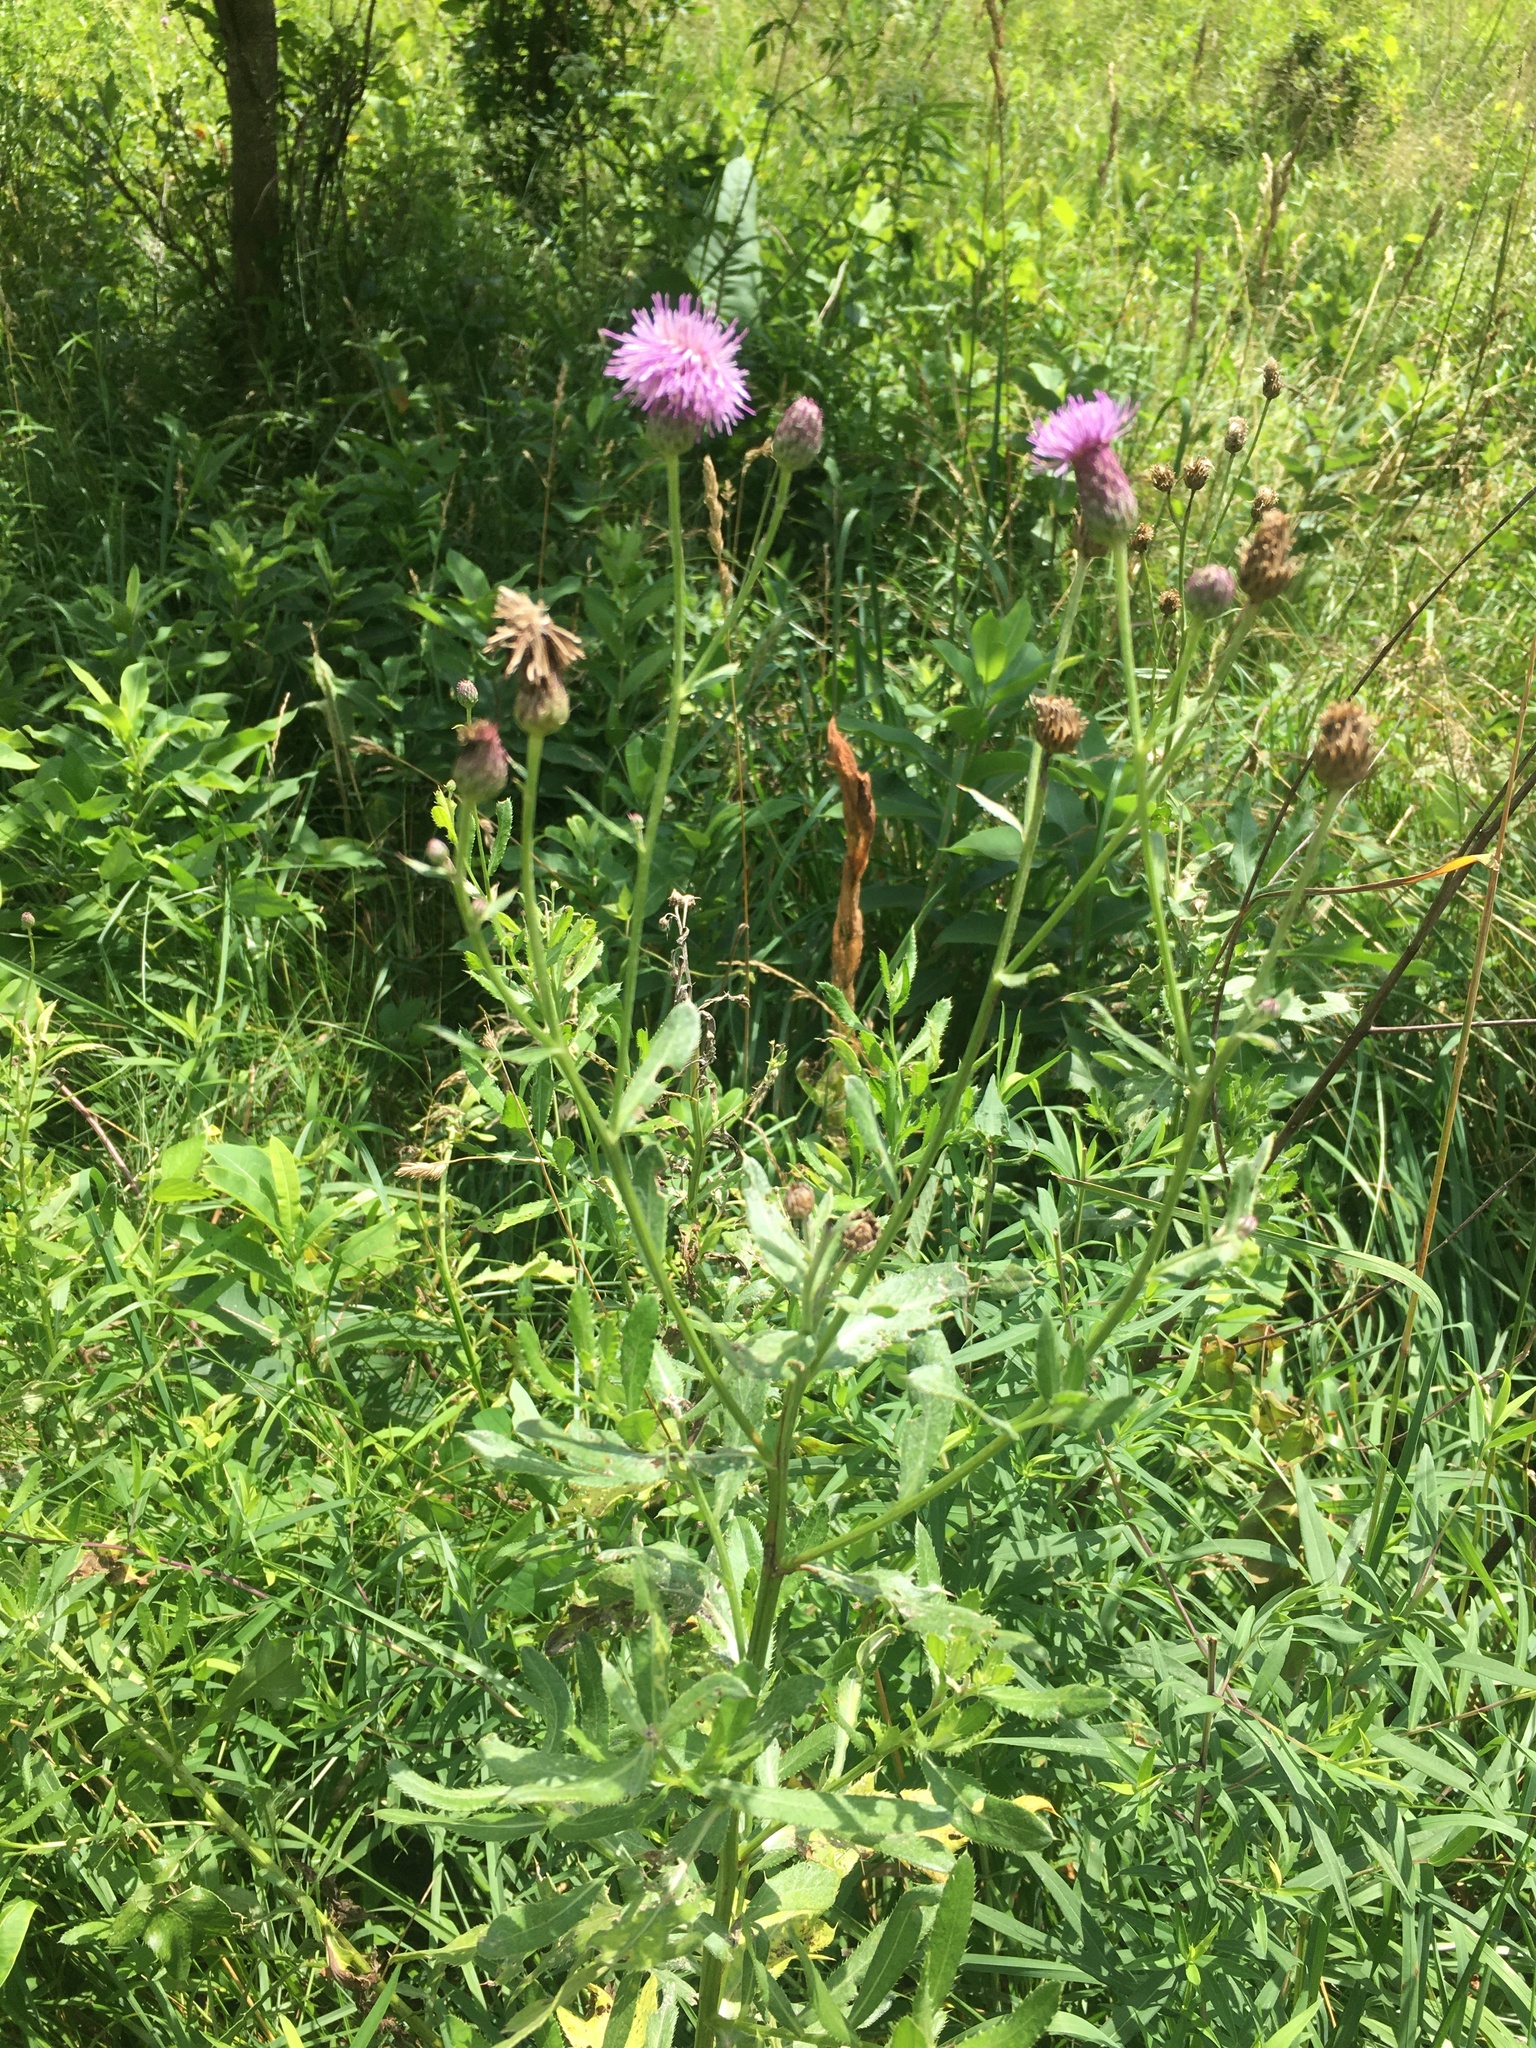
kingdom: Plantae
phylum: Tracheophyta
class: Magnoliopsida
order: Asterales
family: Asteraceae
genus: Cirsium
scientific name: Cirsium arvense
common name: Creeping thistle
